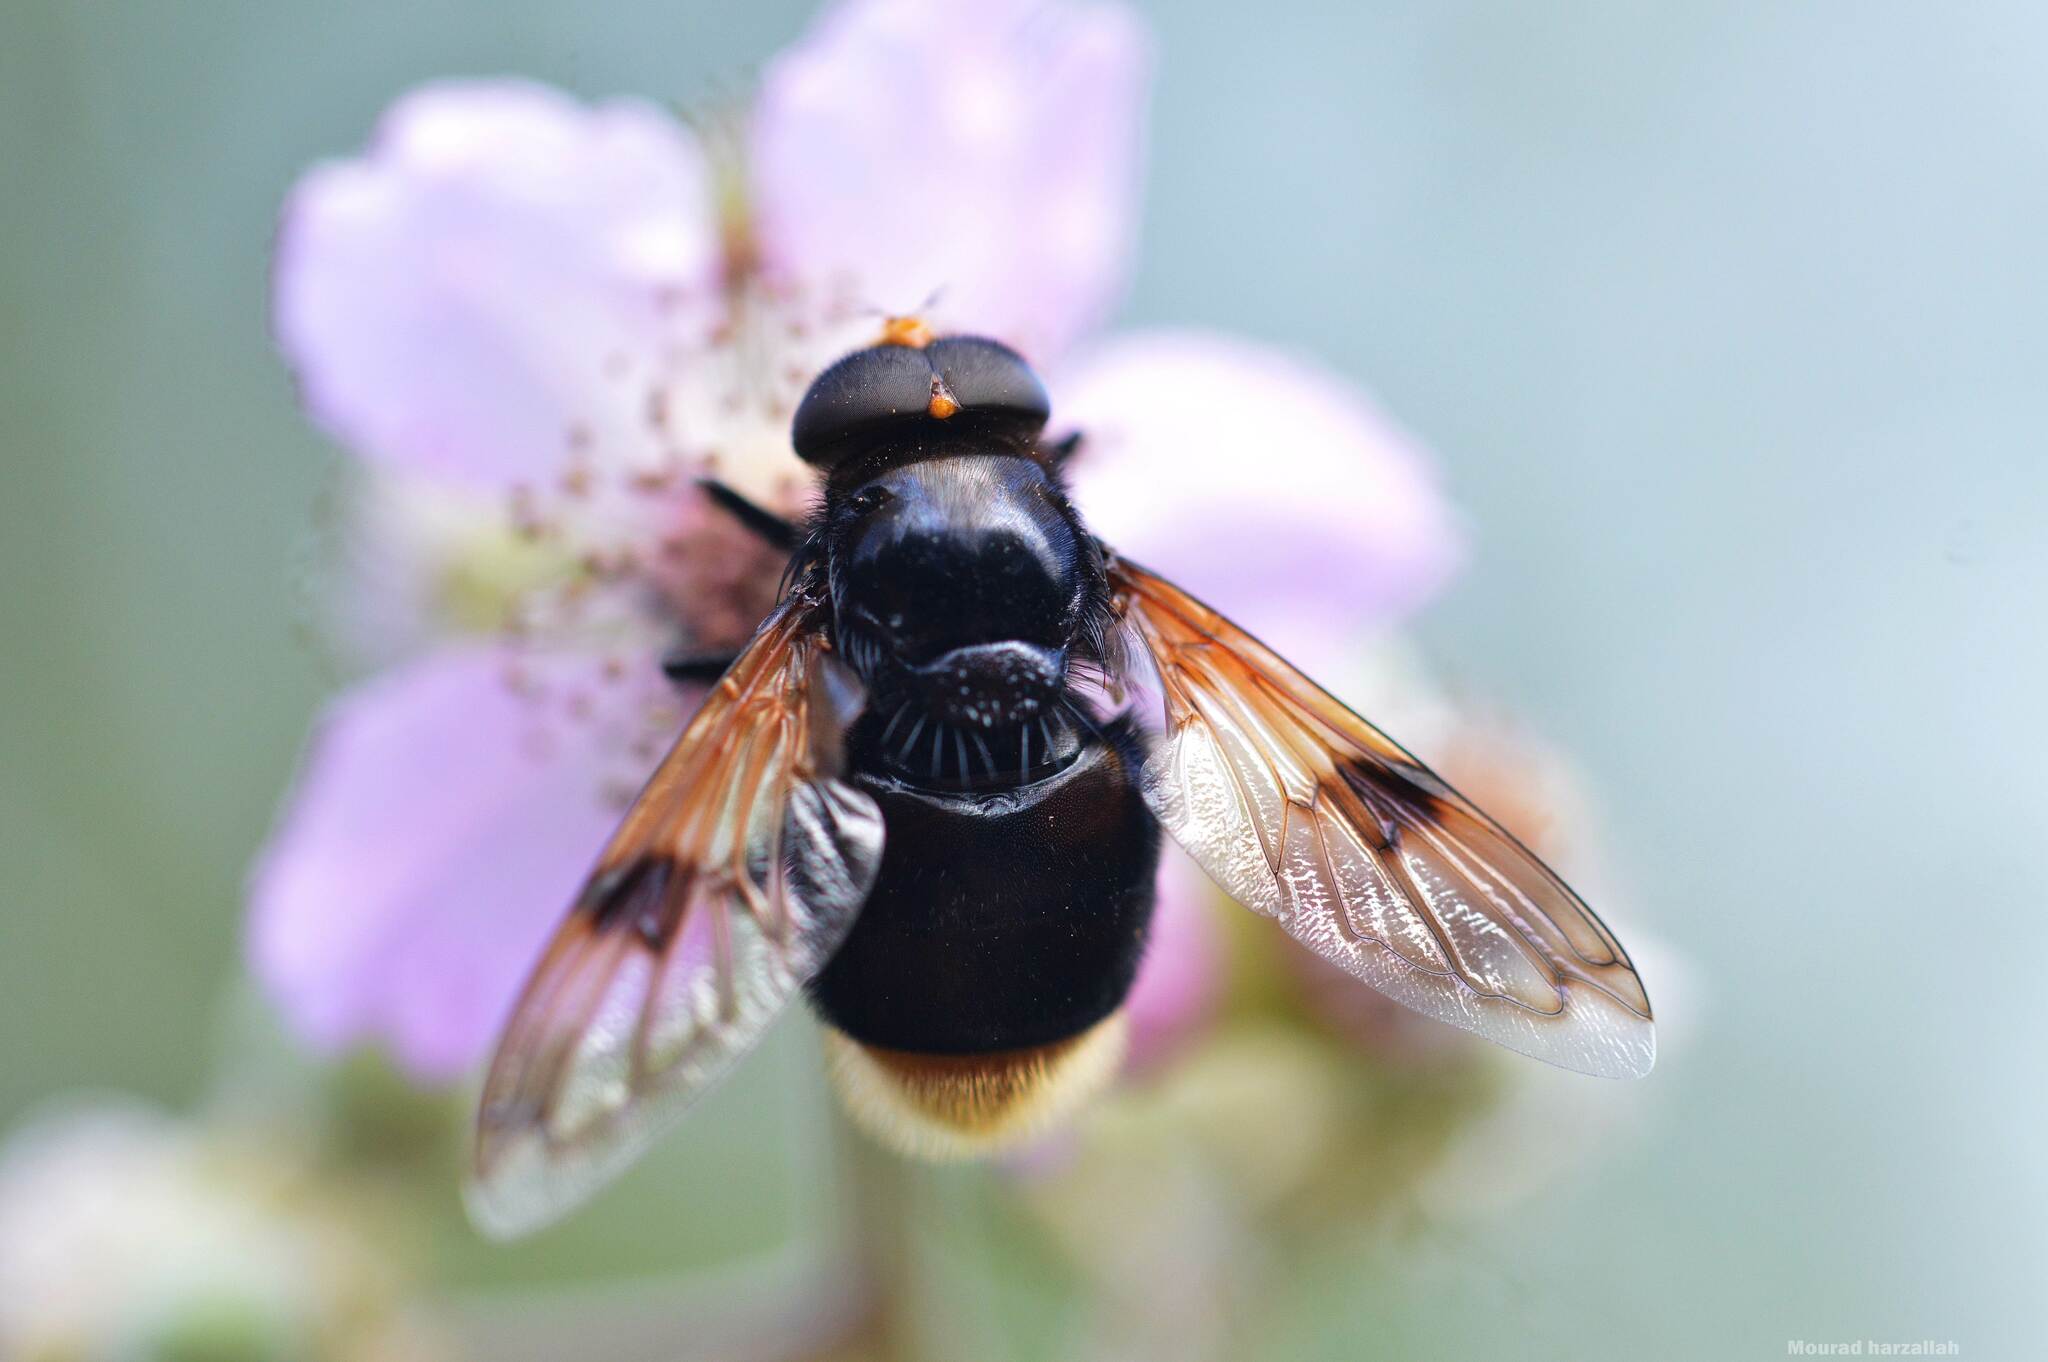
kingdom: Animalia
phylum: Arthropoda
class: Insecta
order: Diptera
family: Syrphidae
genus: Volucella
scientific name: Volucella liquida
